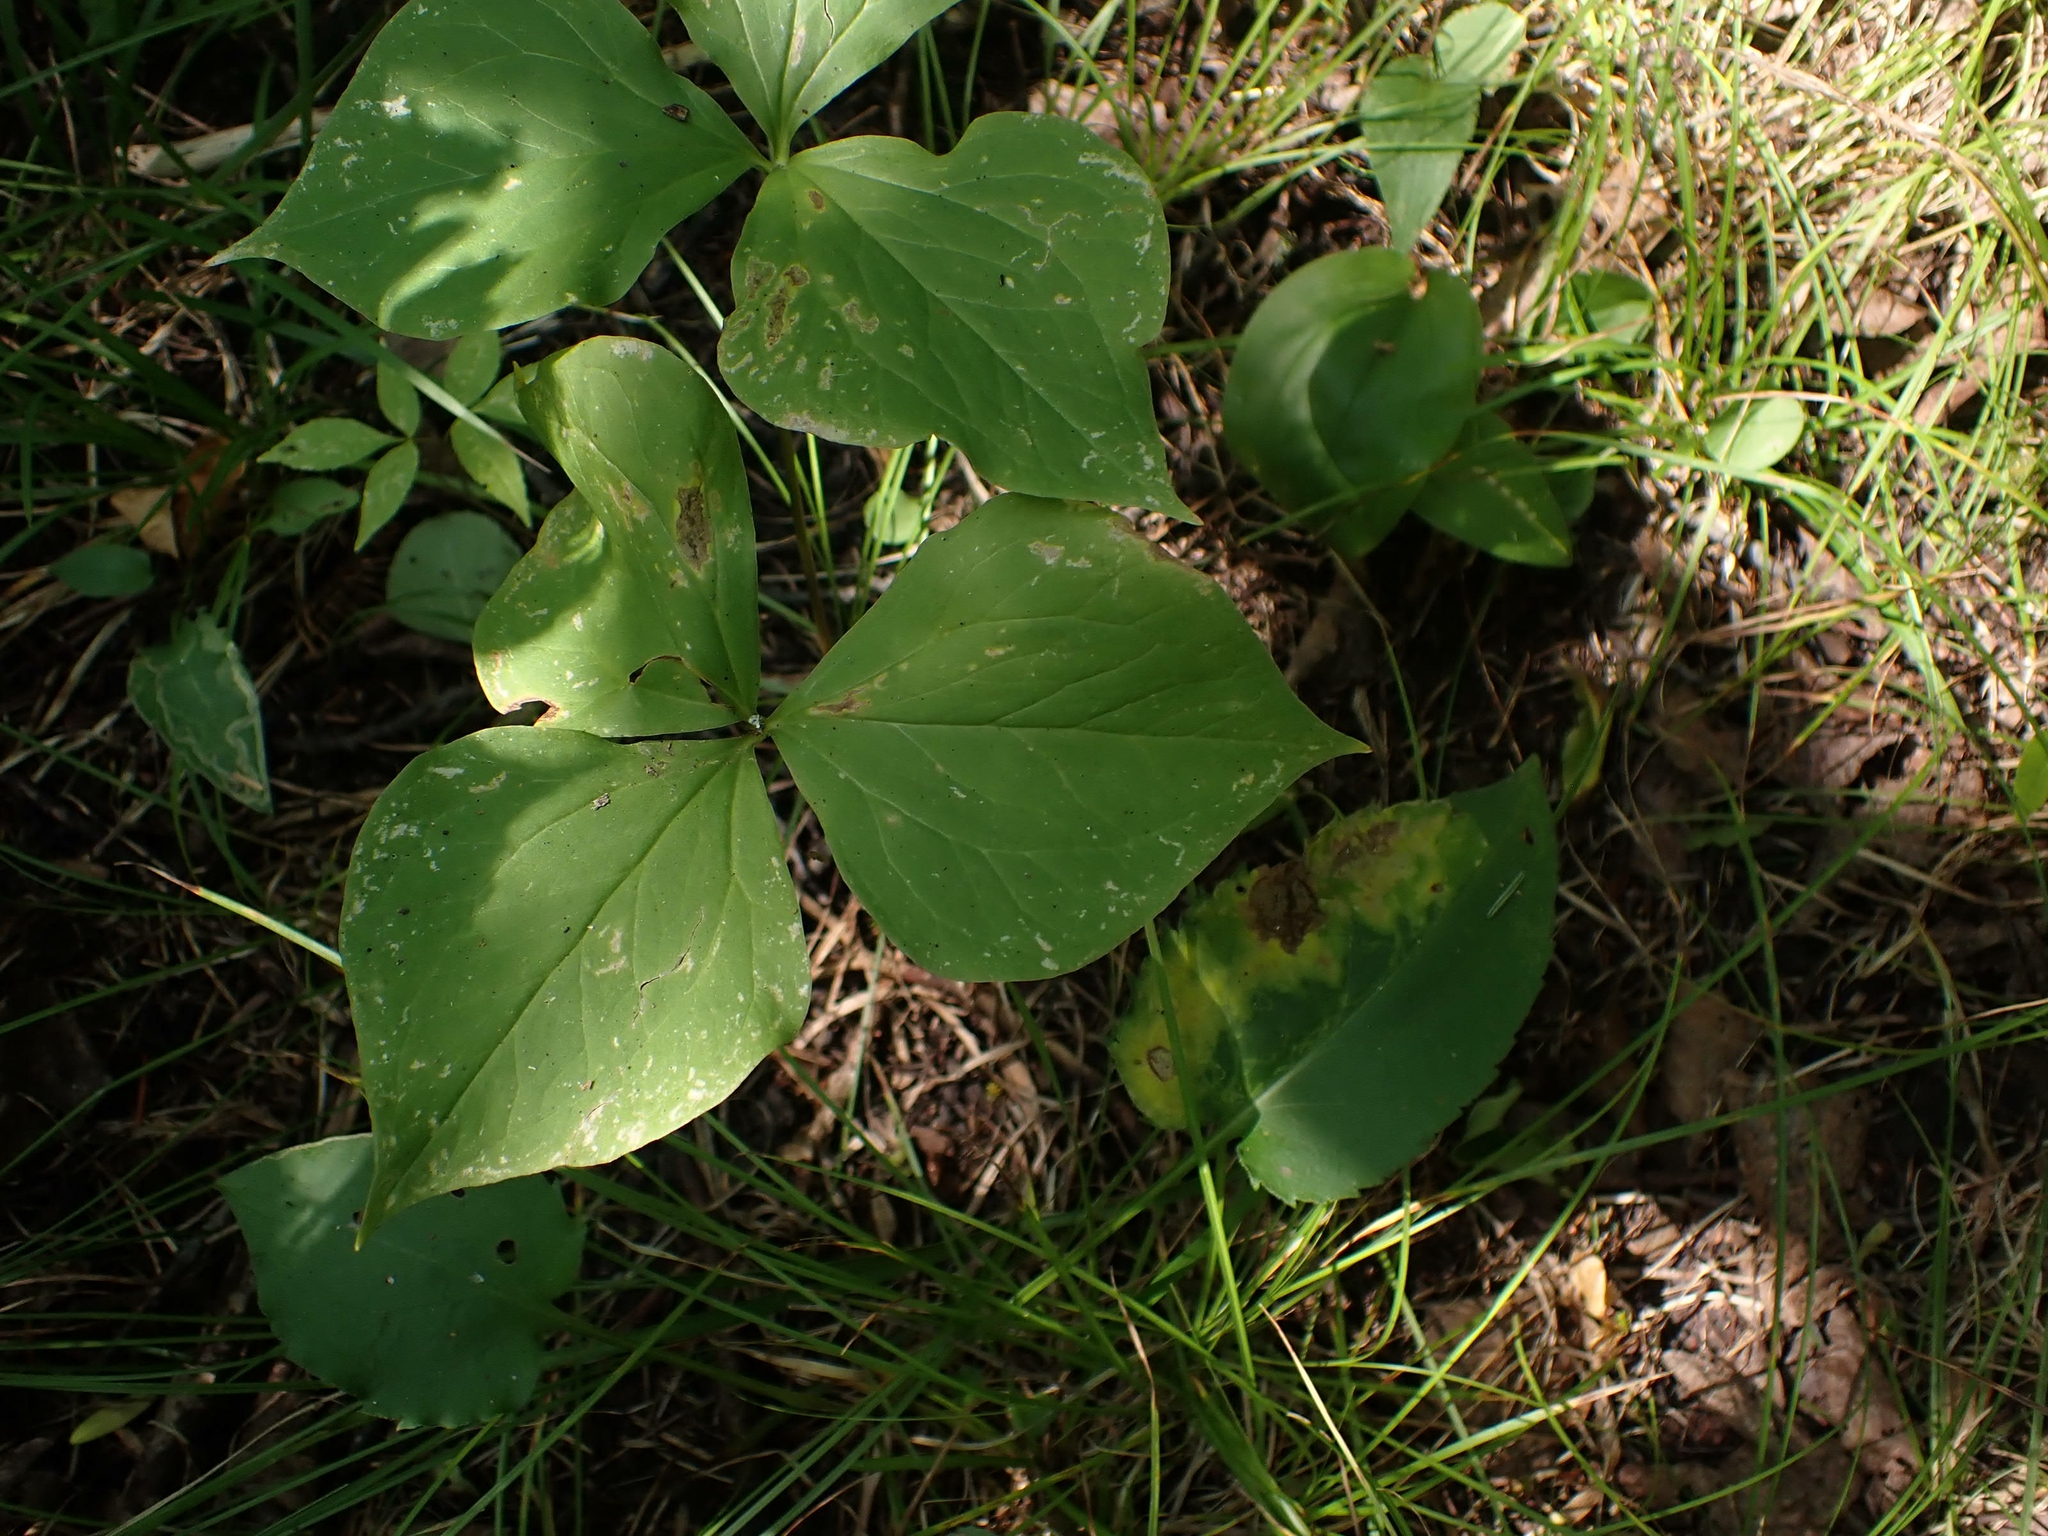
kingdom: Plantae
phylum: Tracheophyta
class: Liliopsida
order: Liliales
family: Melanthiaceae
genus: Trillium
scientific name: Trillium cernuum
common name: Nodding trillium
